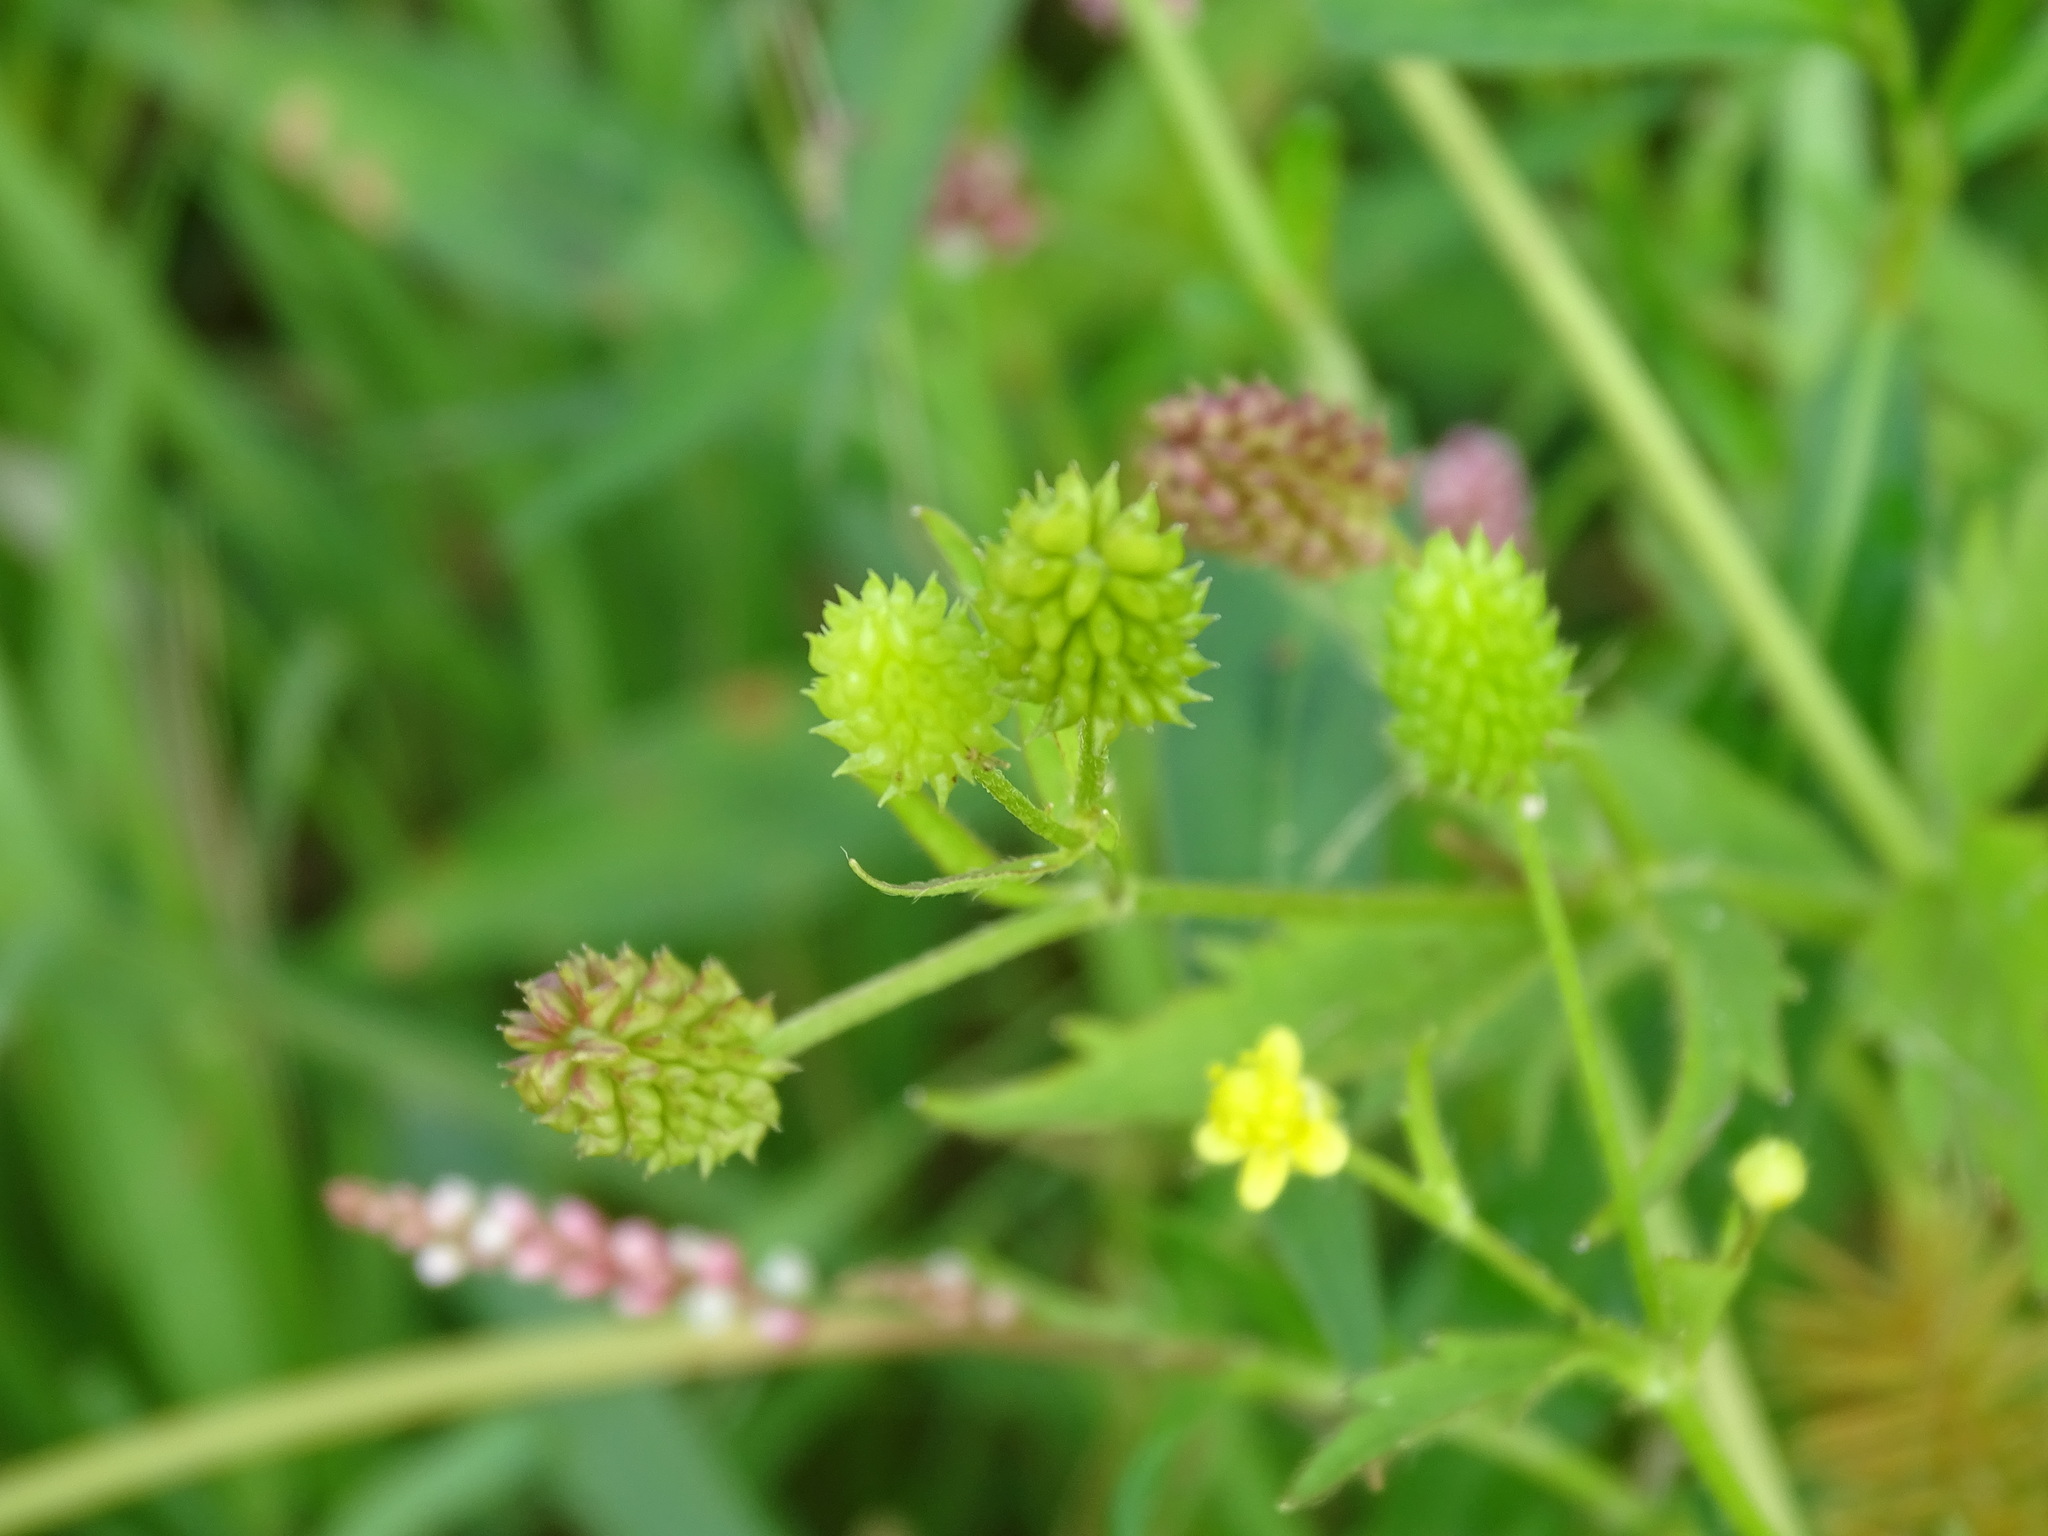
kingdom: Plantae
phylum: Tracheophyta
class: Magnoliopsida
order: Ranunculales
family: Ranunculaceae
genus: Ranunculus
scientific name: Ranunculus pensylvanicus
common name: Bristly buttercup
